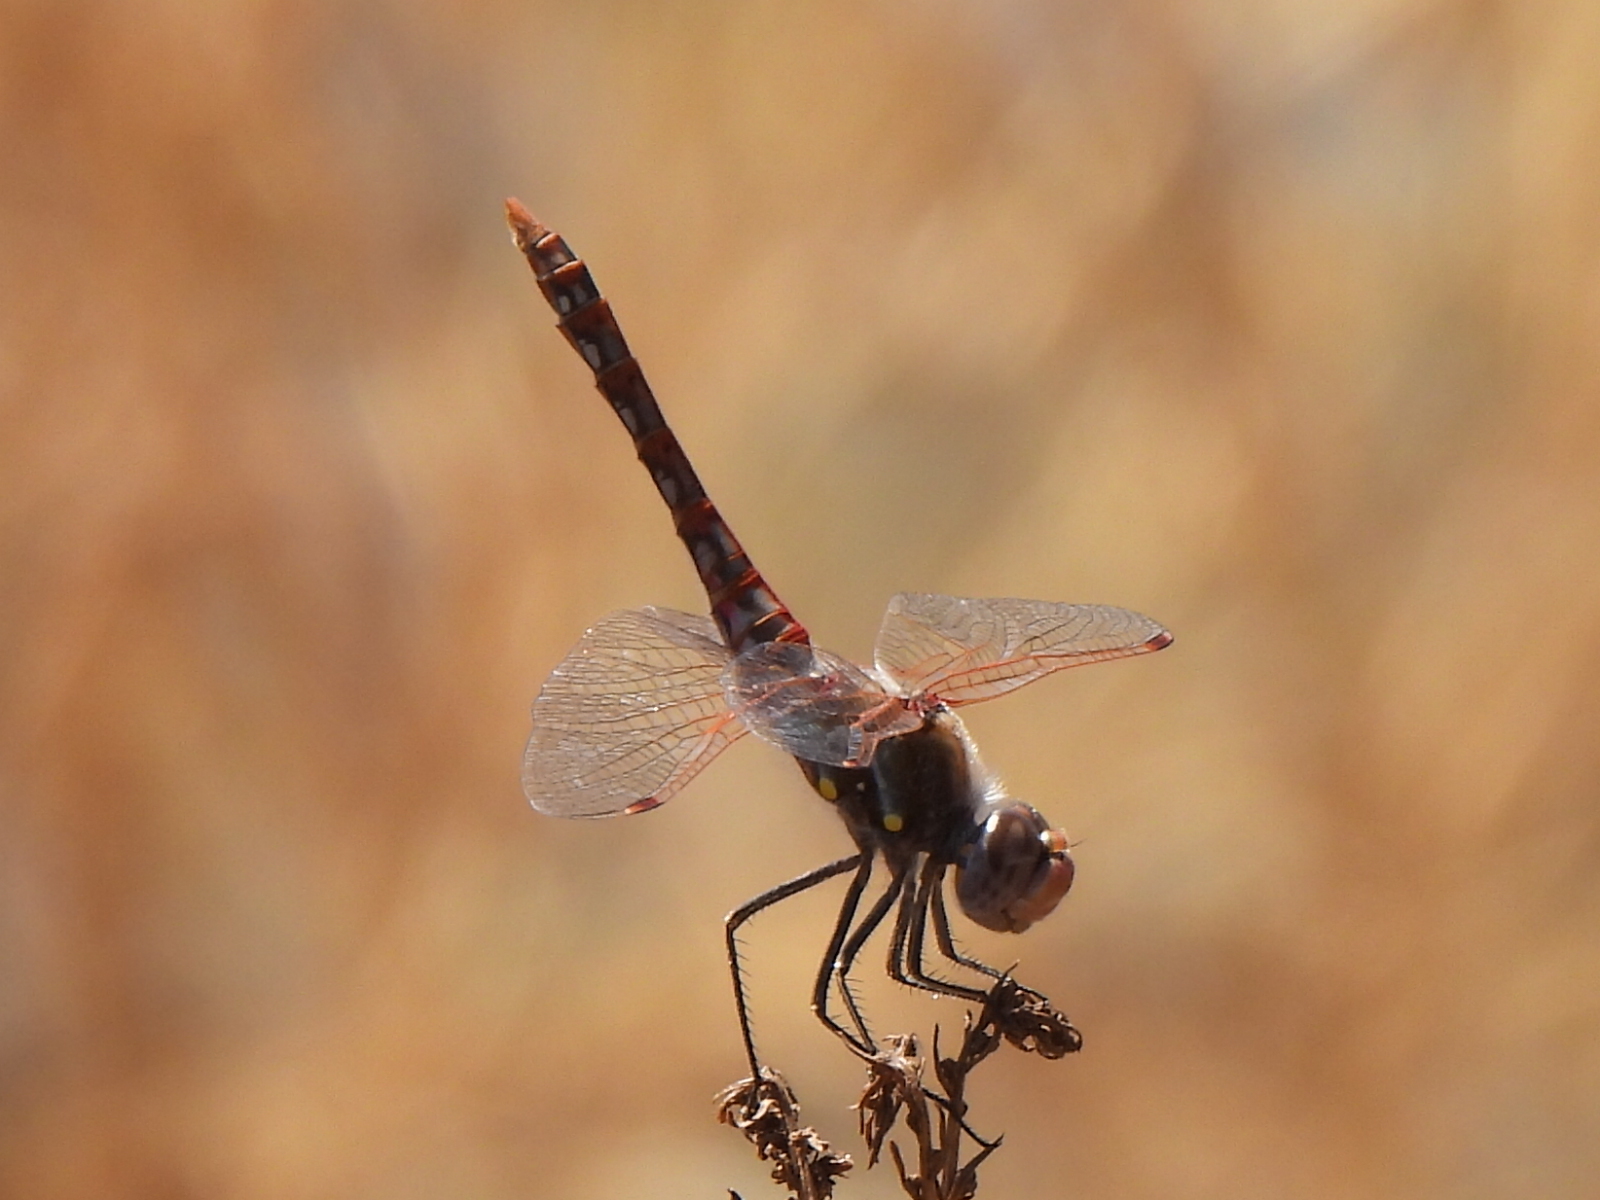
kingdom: Animalia
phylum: Arthropoda
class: Insecta
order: Odonata
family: Libellulidae
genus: Sympetrum
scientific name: Sympetrum corruptum
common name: Variegated meadowhawk
